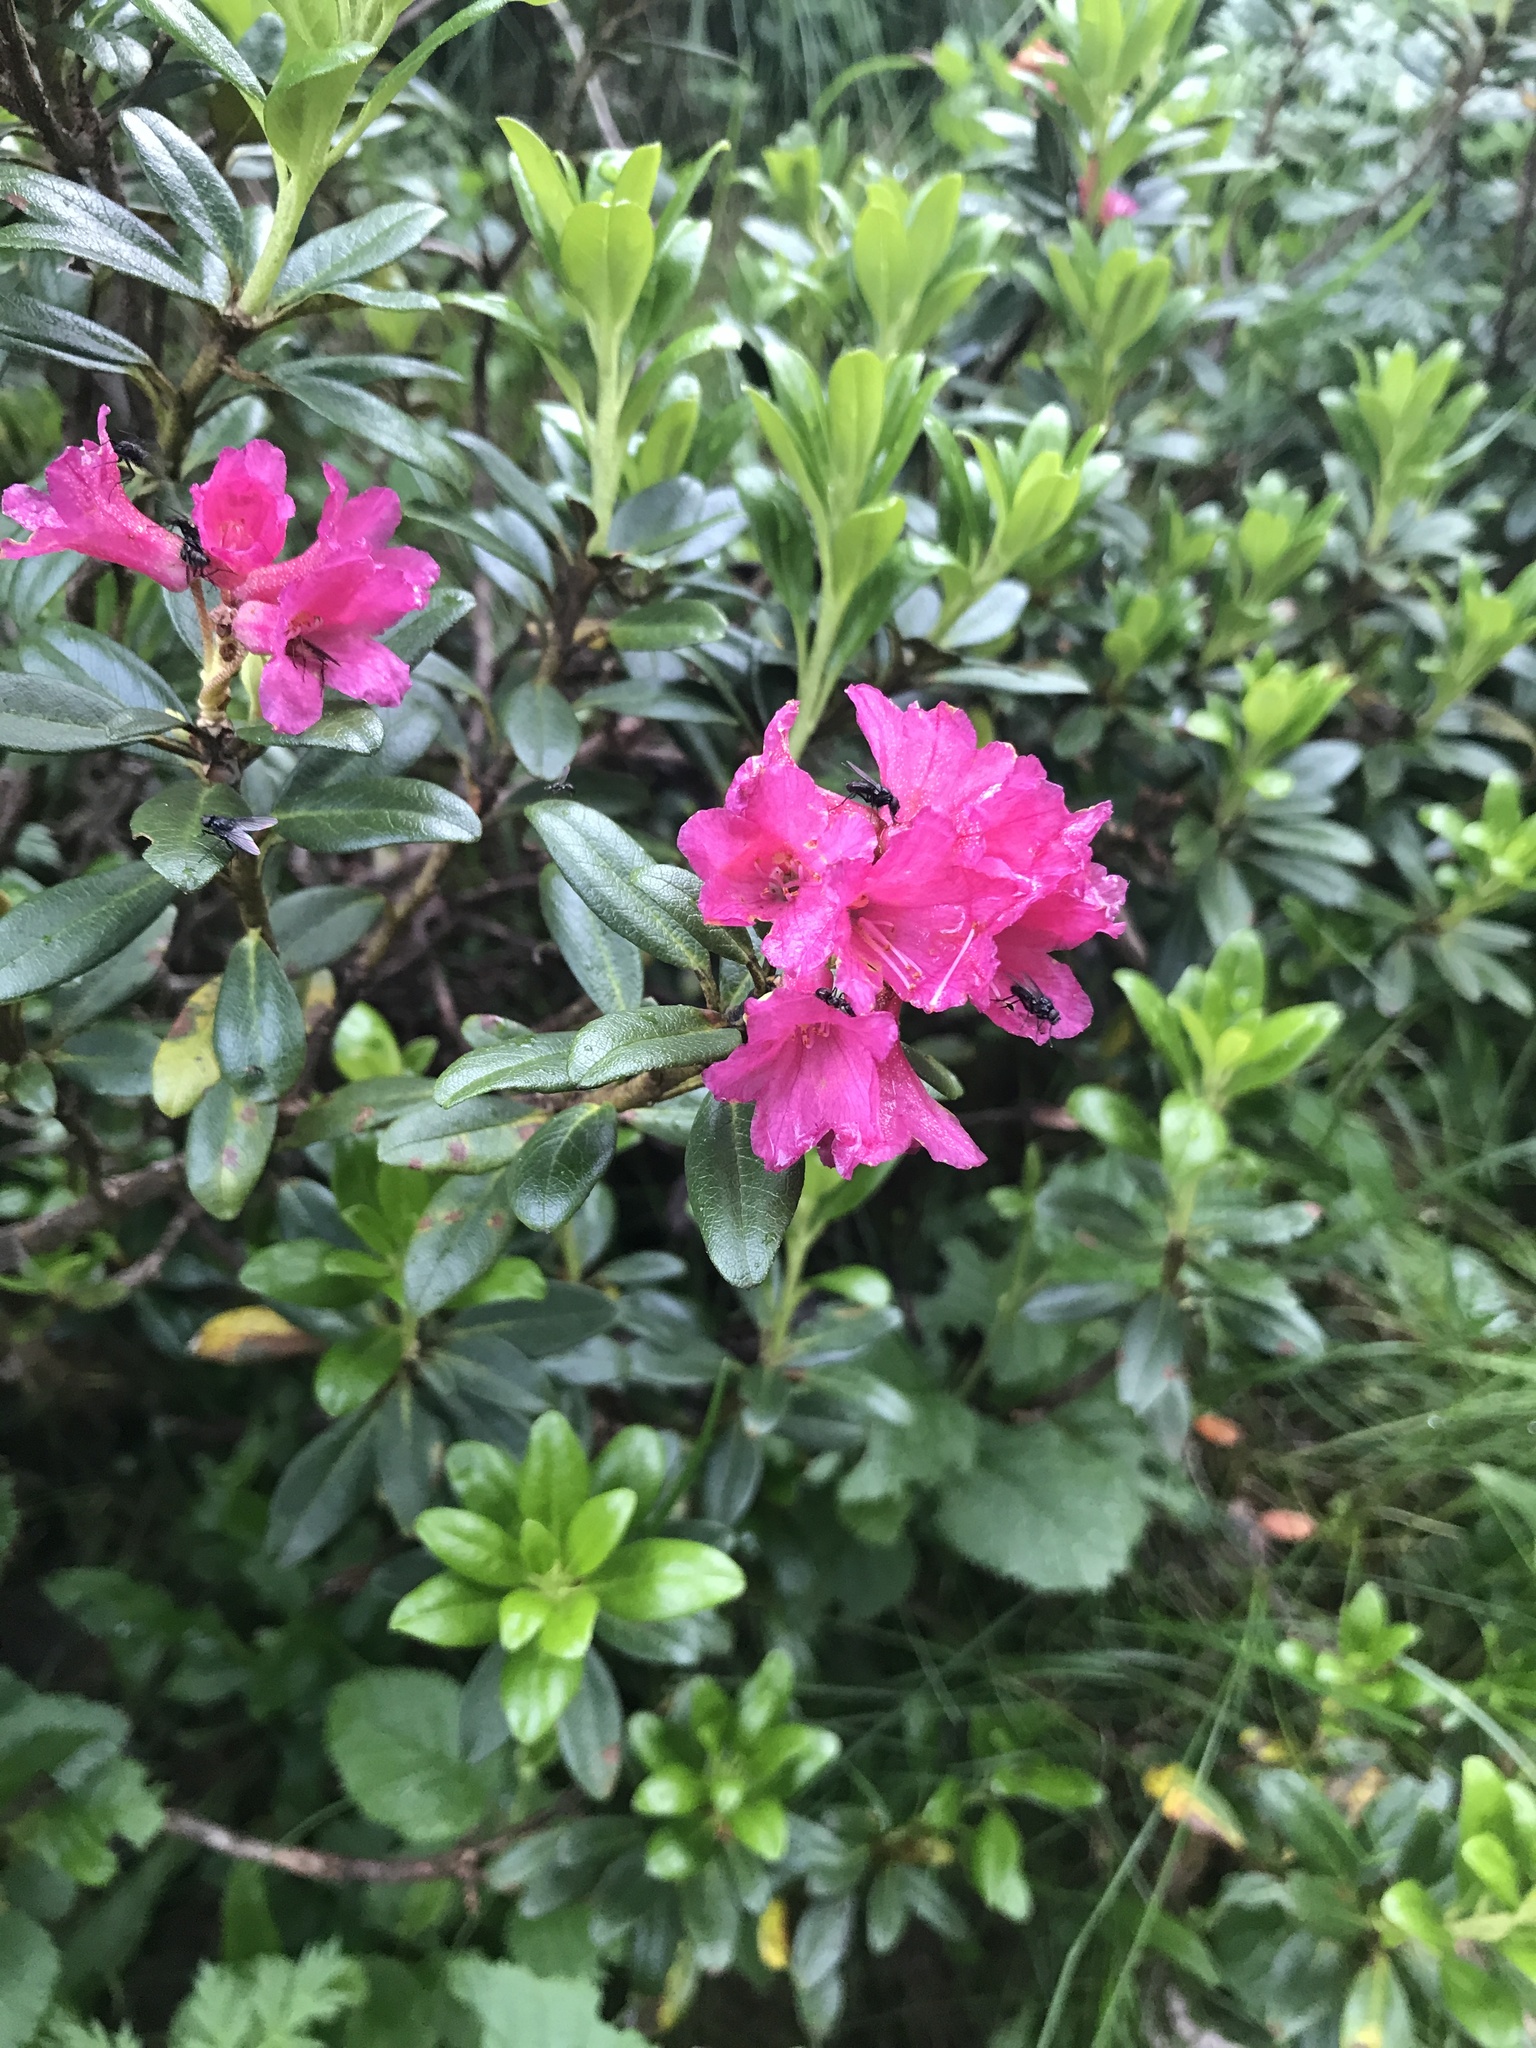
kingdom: Plantae
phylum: Tracheophyta
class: Magnoliopsida
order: Ericales
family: Ericaceae
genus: Rhododendron
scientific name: Rhododendron ferrugineum
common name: Alpenrose
